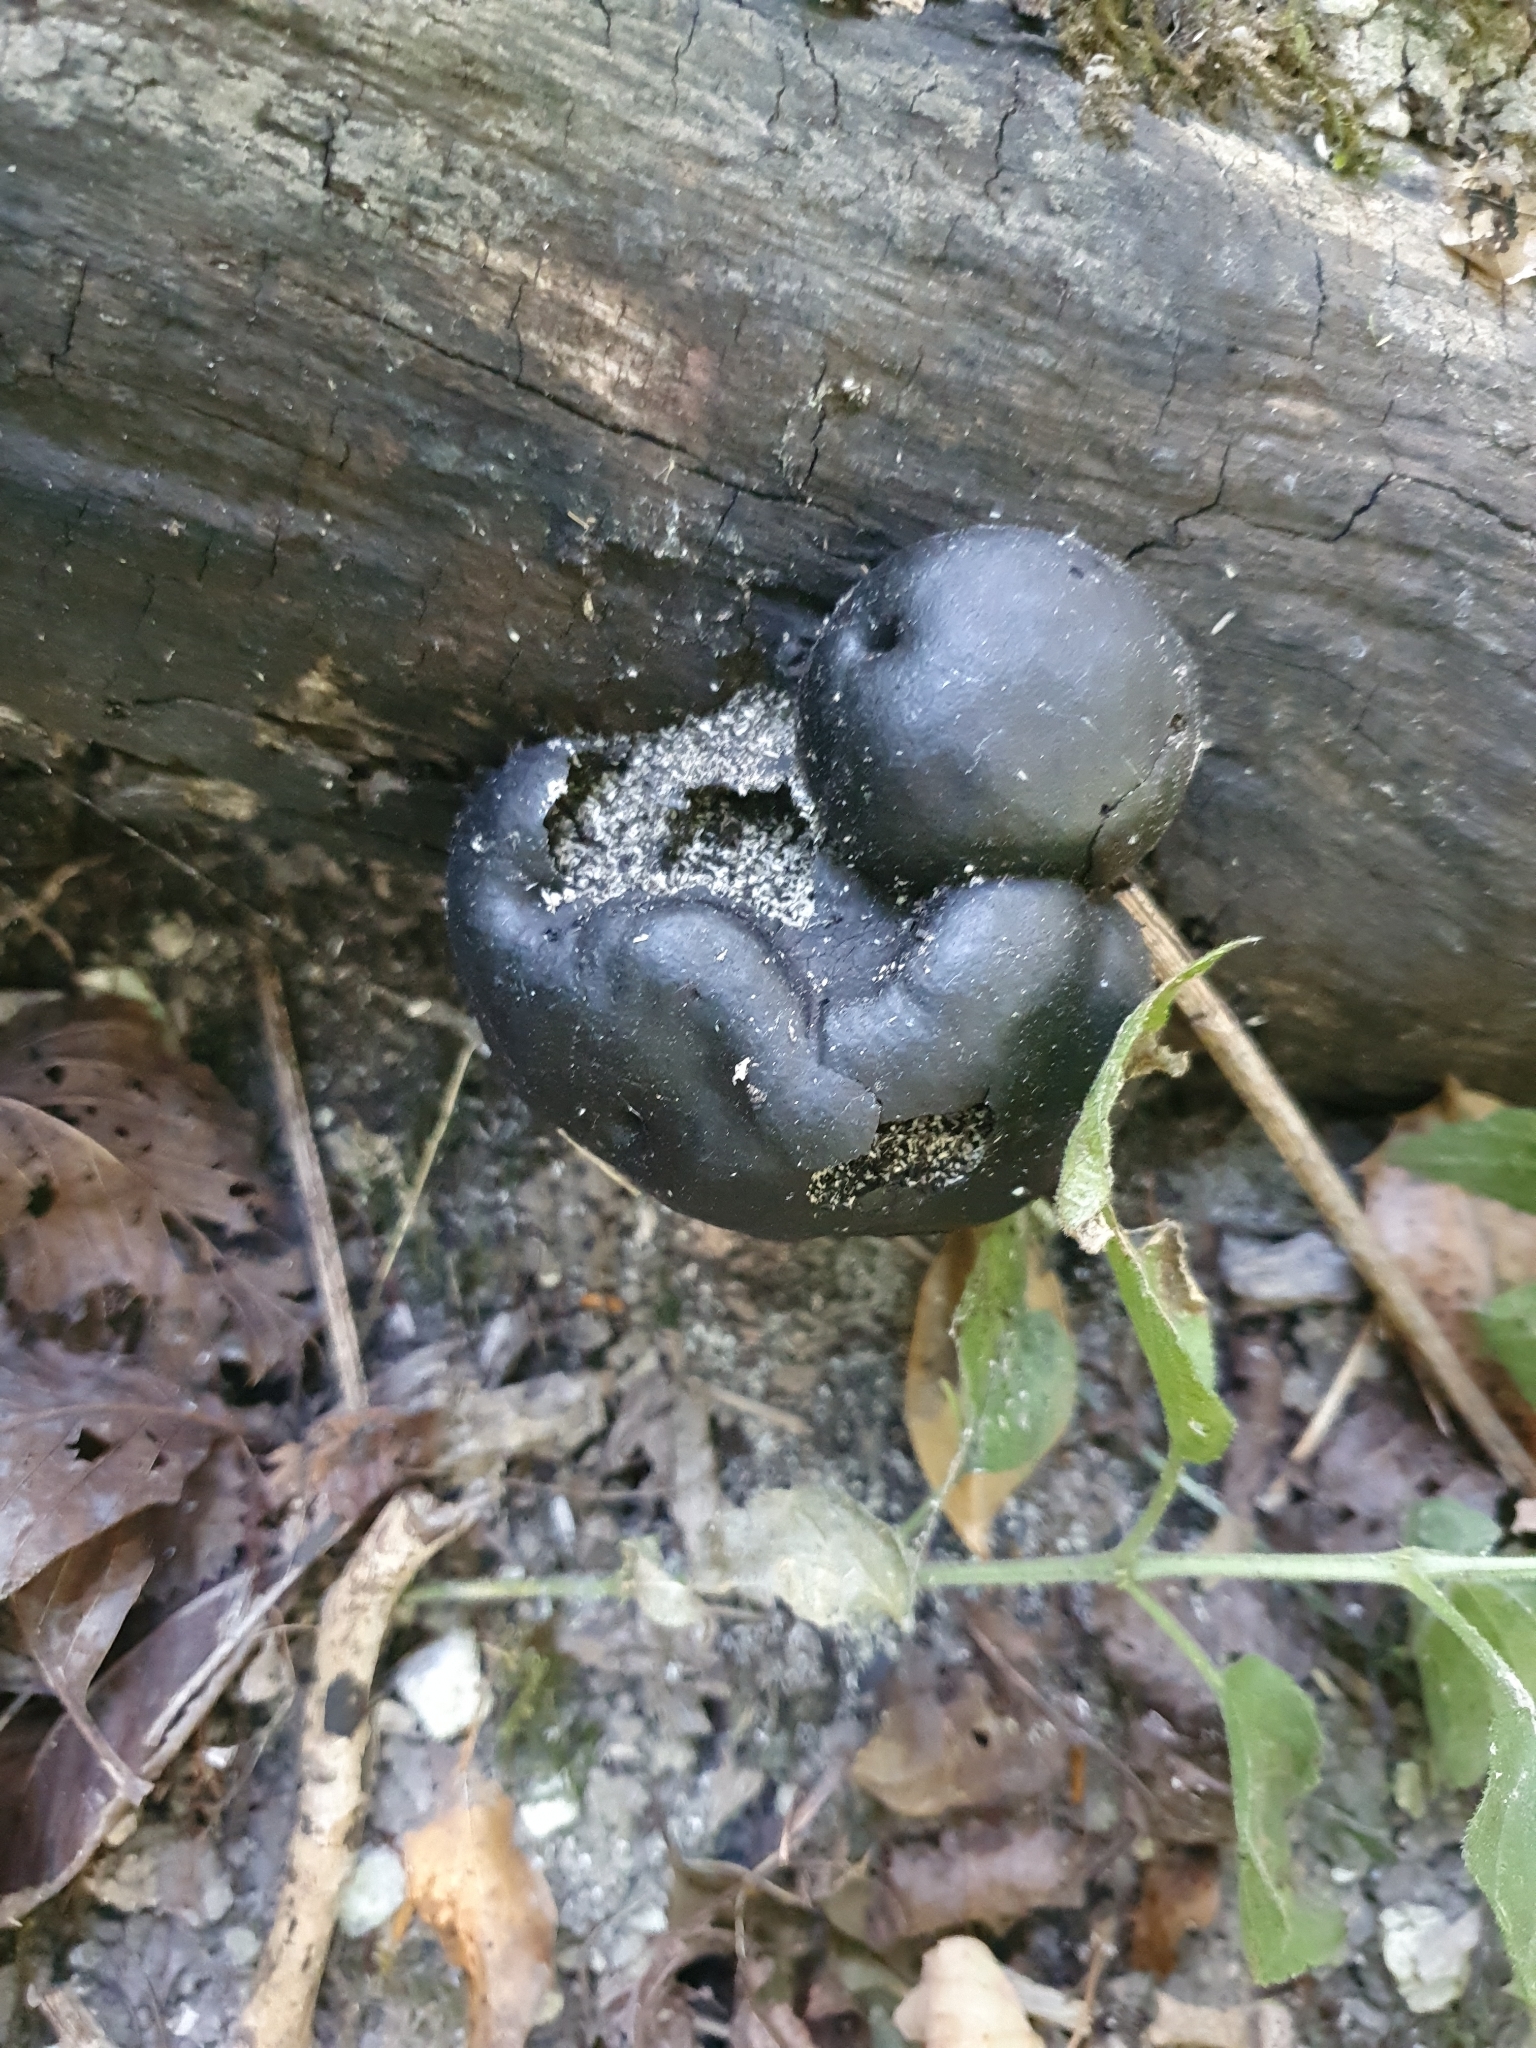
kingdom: Fungi
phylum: Ascomycota
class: Sordariomycetes
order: Xylariales
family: Hypoxylaceae
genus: Daldinia
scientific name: Daldinia concentrica
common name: Cramp balls
